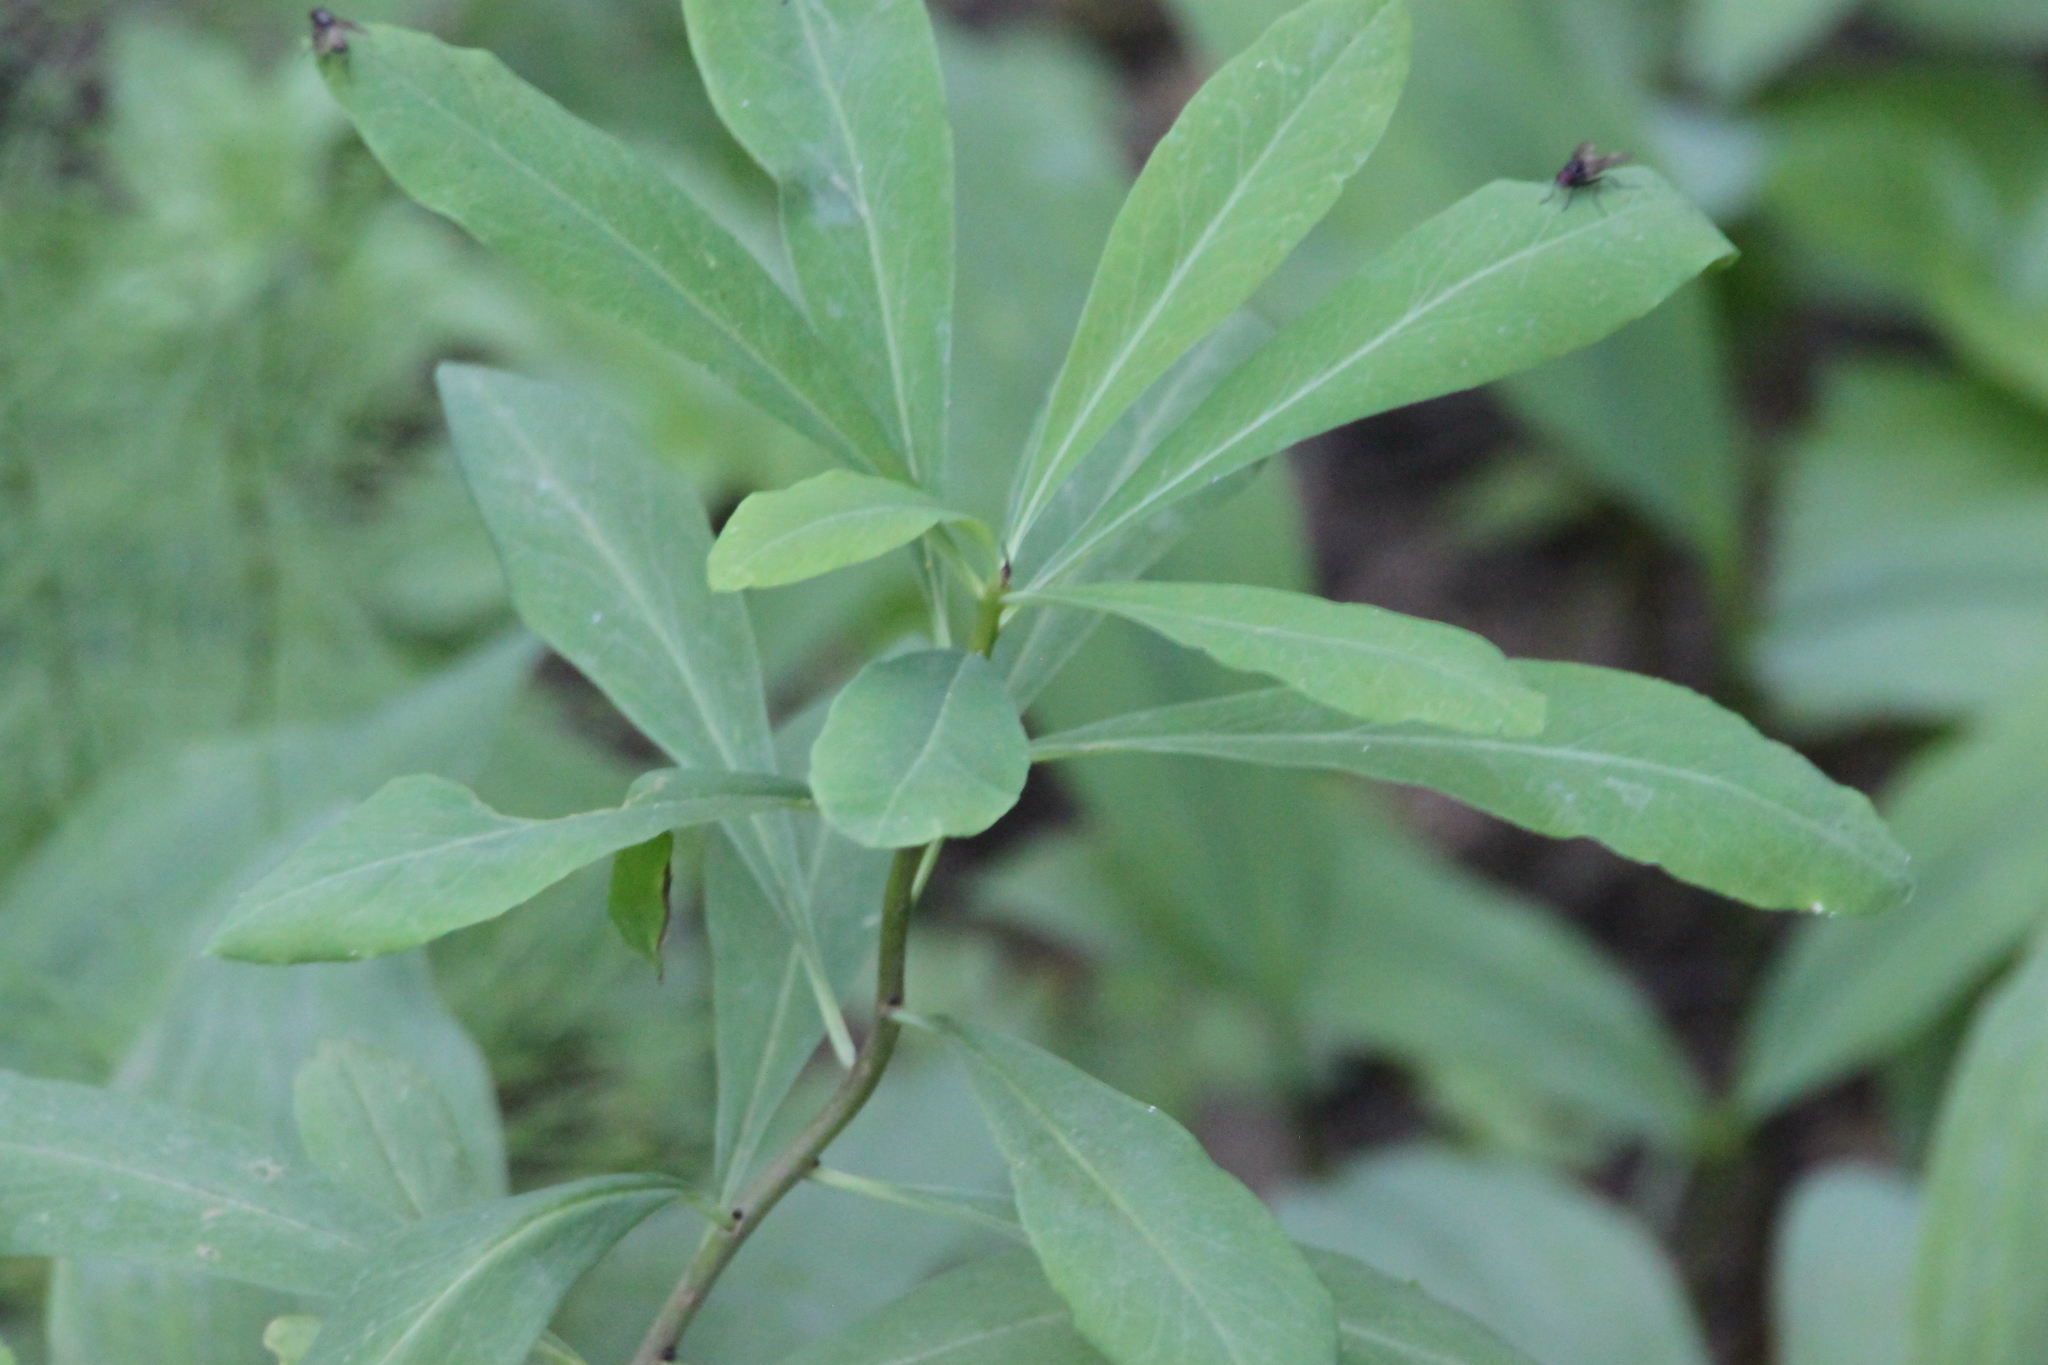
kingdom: Plantae
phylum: Tracheophyta
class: Magnoliopsida
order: Malvales
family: Thymelaeaceae
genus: Daphne
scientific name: Daphne mezereum
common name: Mezereon
